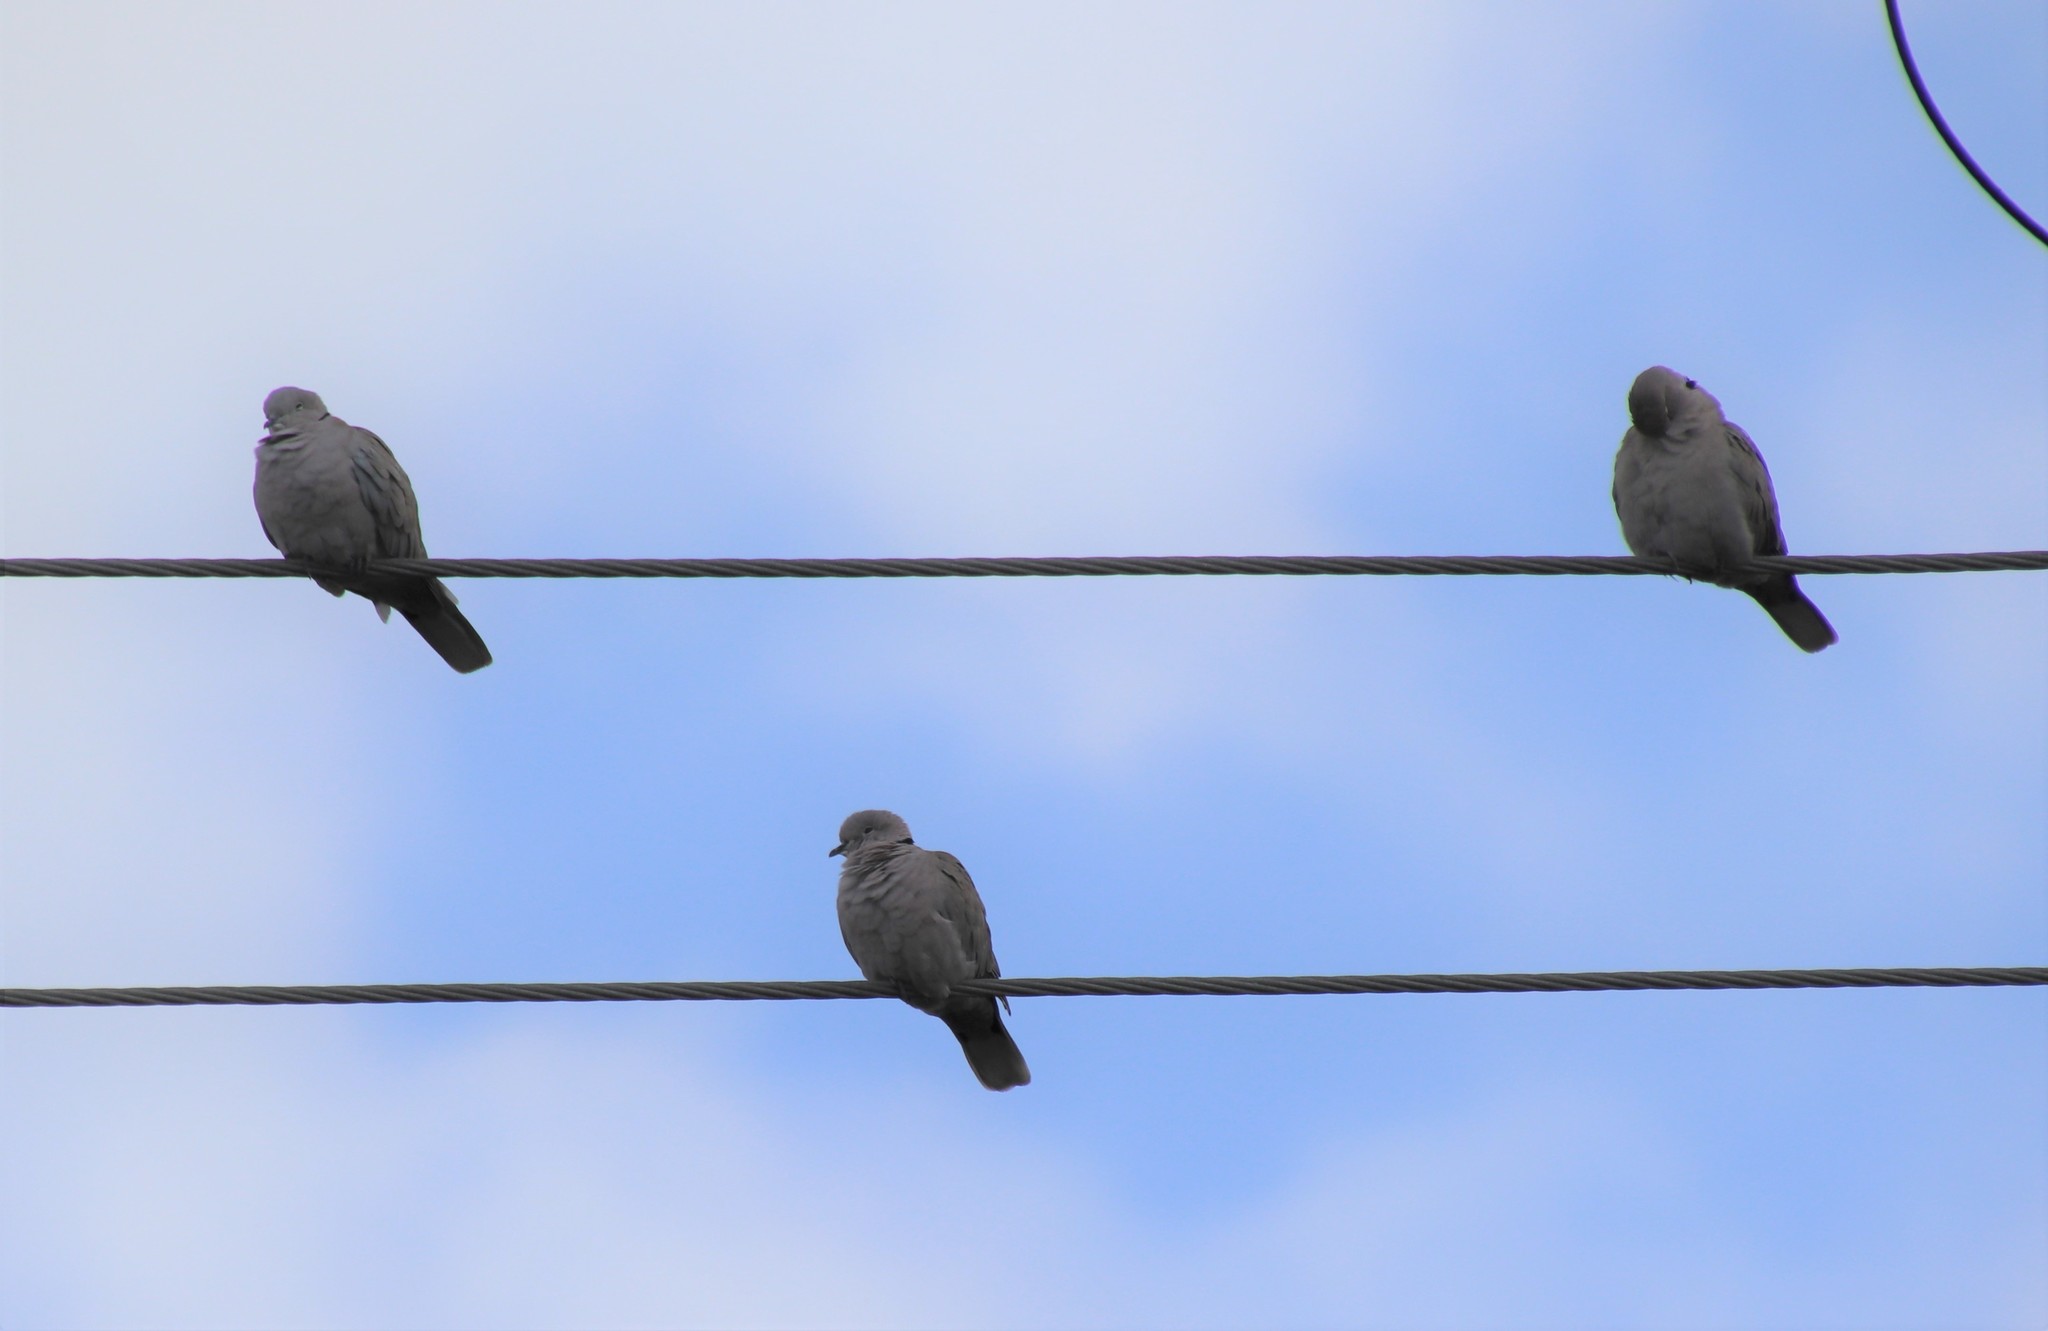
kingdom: Animalia
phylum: Chordata
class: Aves
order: Columbiformes
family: Columbidae
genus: Streptopelia
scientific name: Streptopelia decaocto
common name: Eurasian collared dove
